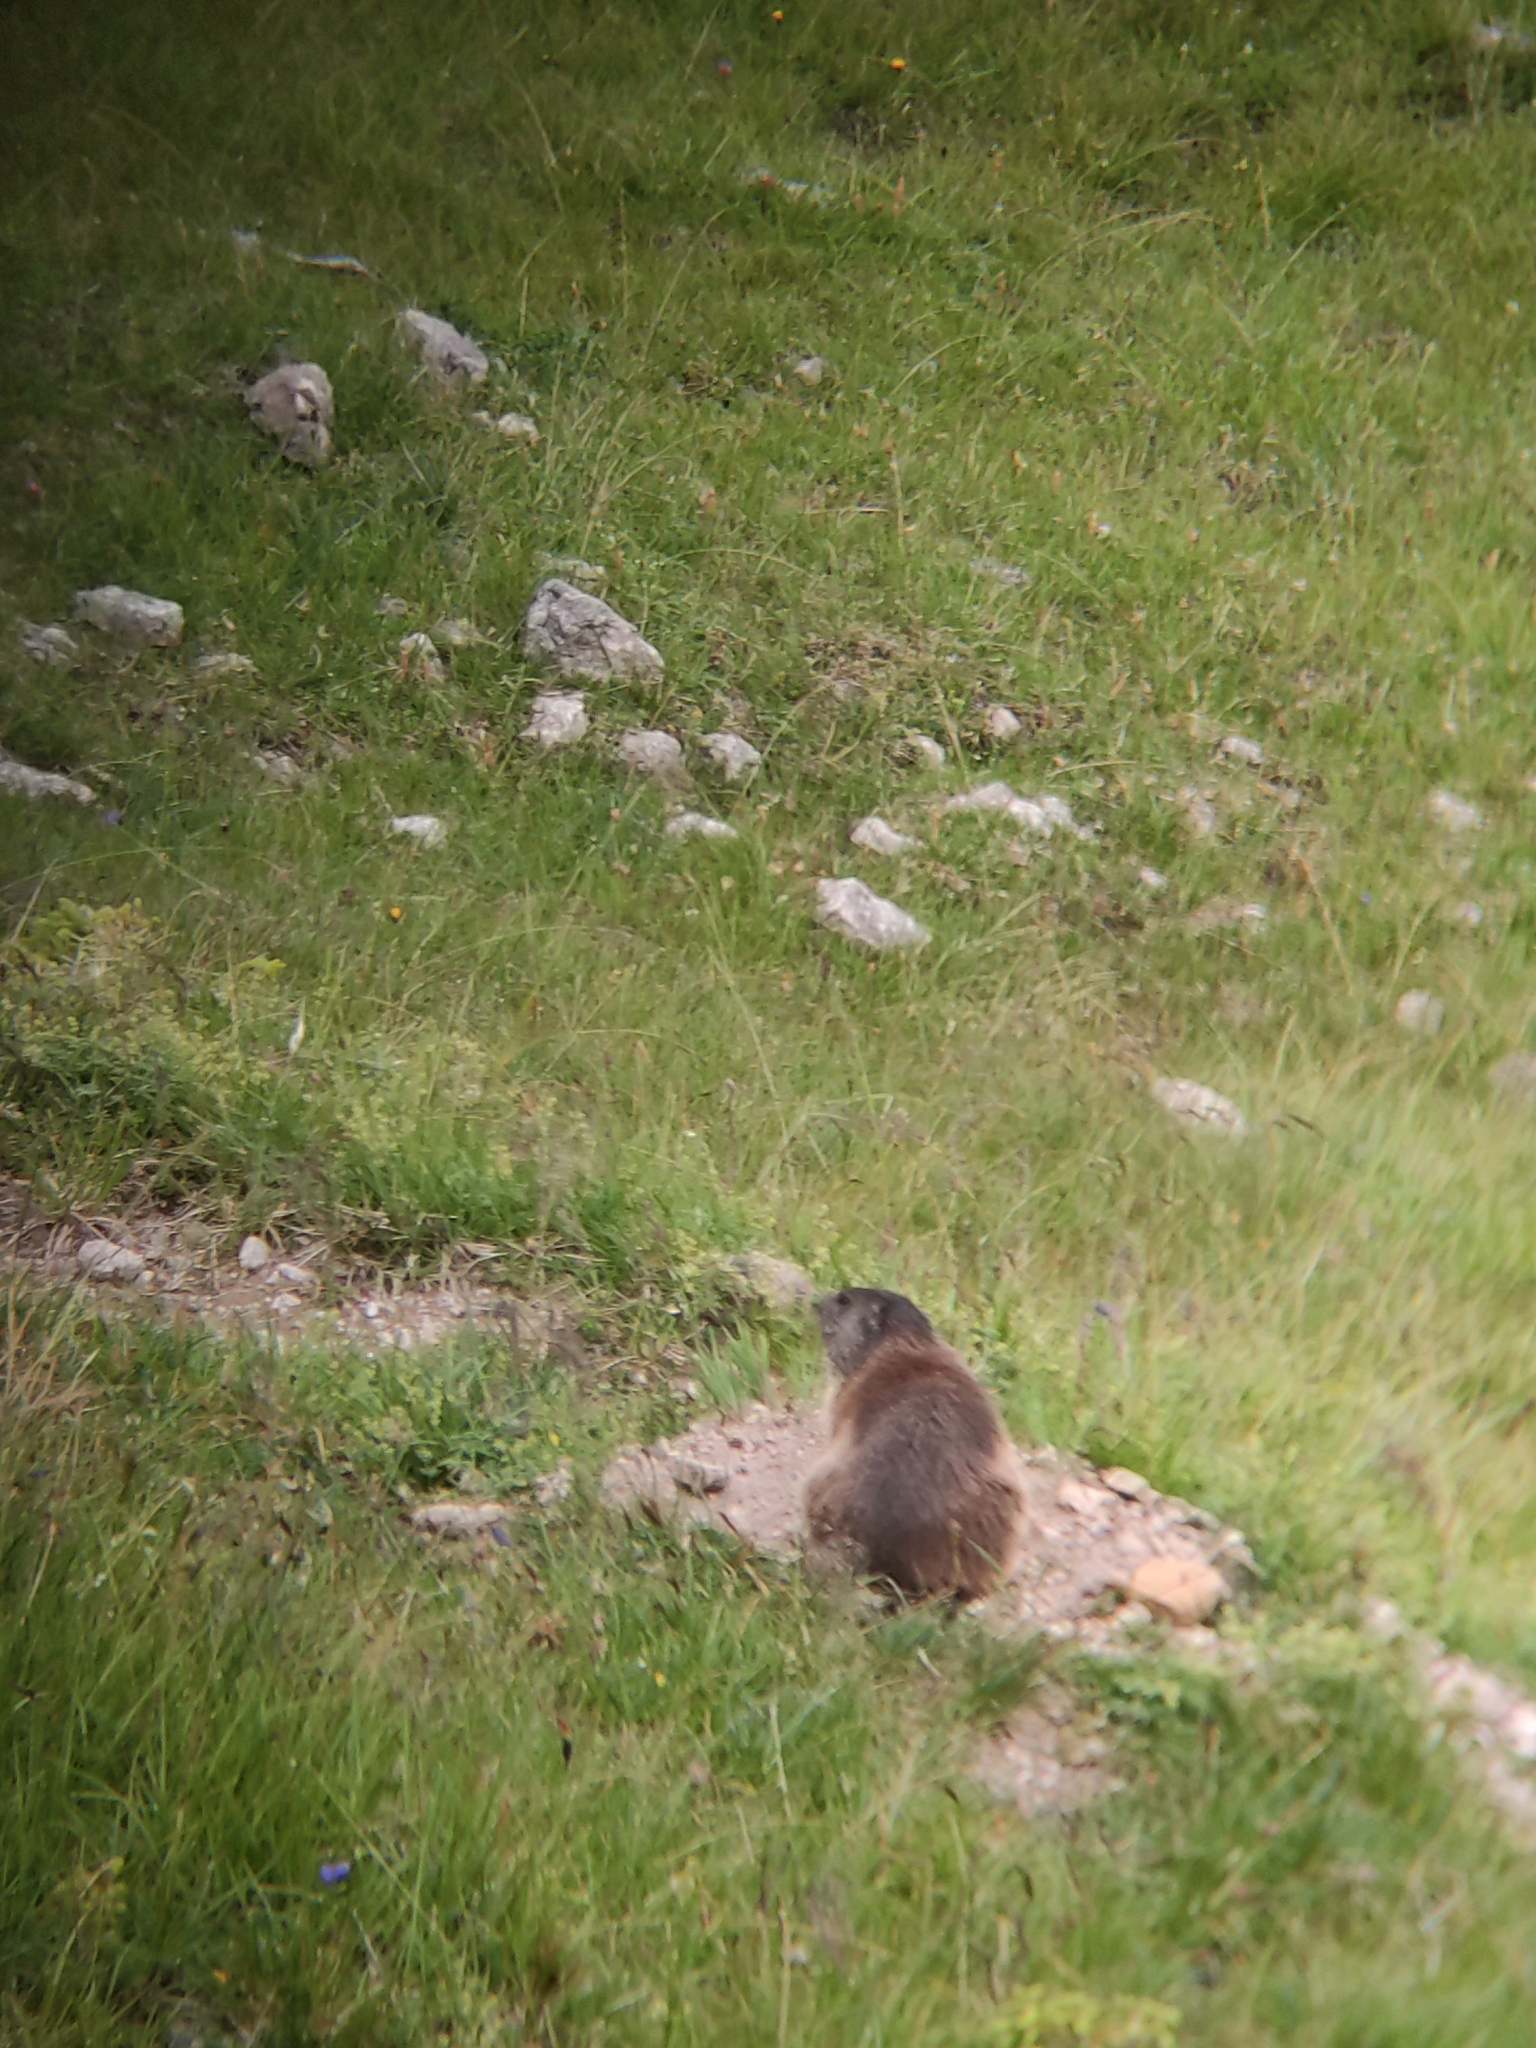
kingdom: Animalia
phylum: Chordata
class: Mammalia
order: Rodentia
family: Sciuridae
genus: Marmota
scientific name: Marmota marmota
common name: Alpine marmot
